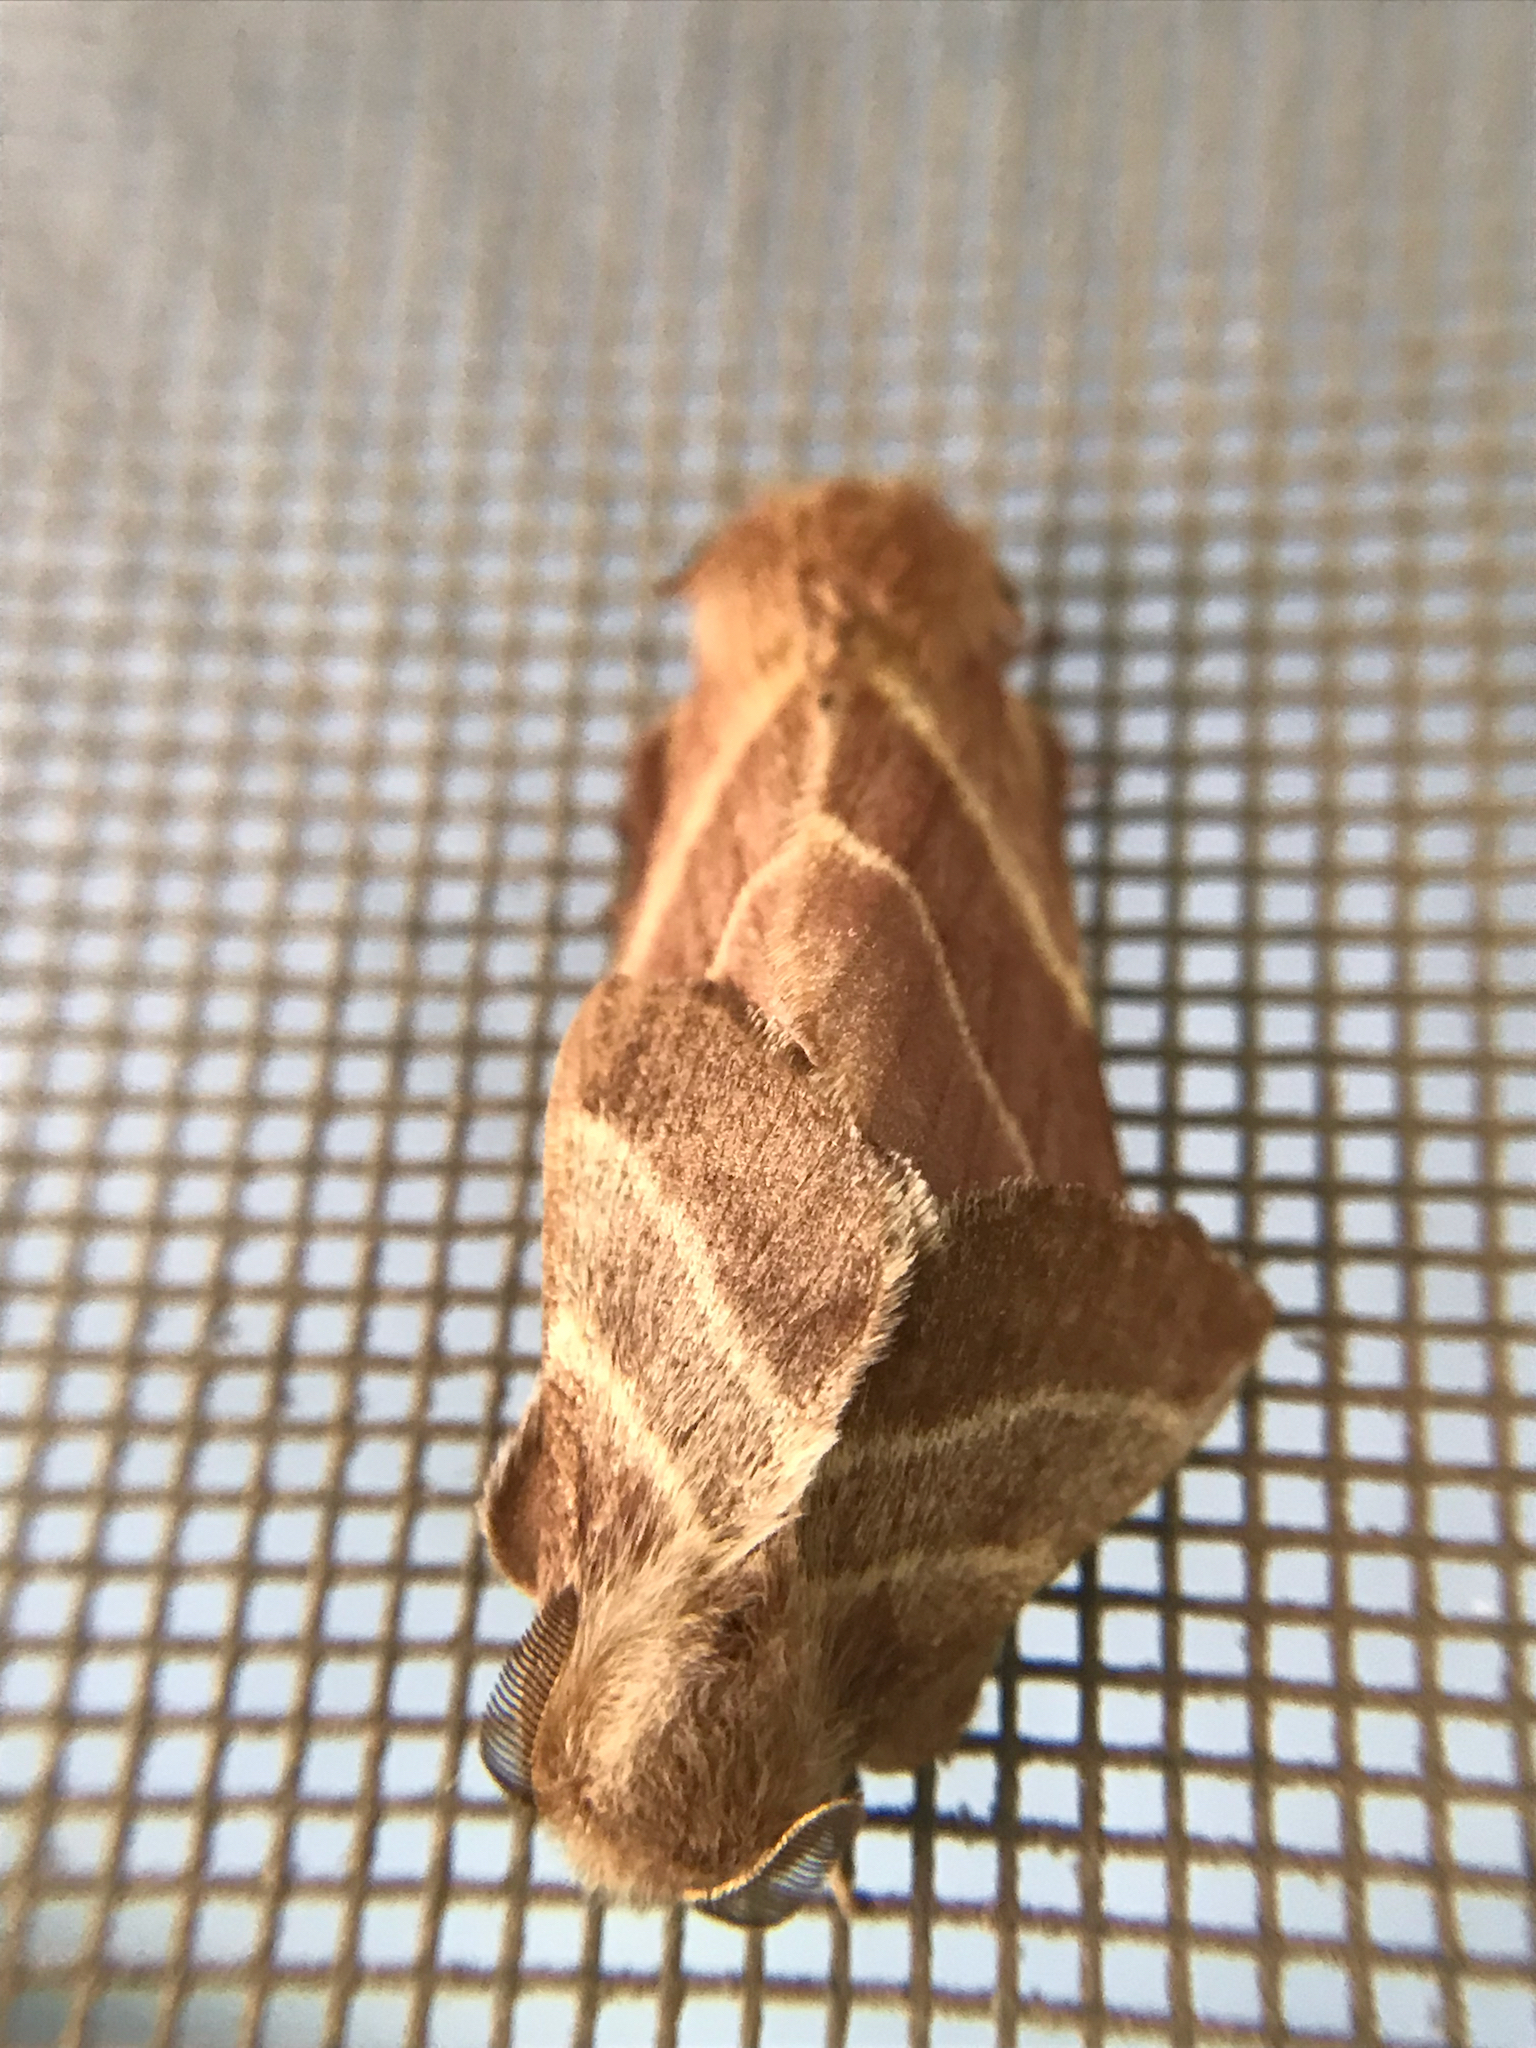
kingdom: Animalia
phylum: Arthropoda
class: Insecta
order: Lepidoptera
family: Lasiocampidae
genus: Malacosoma
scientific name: Malacosoma americana
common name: Eastern tent caterpillar moth
